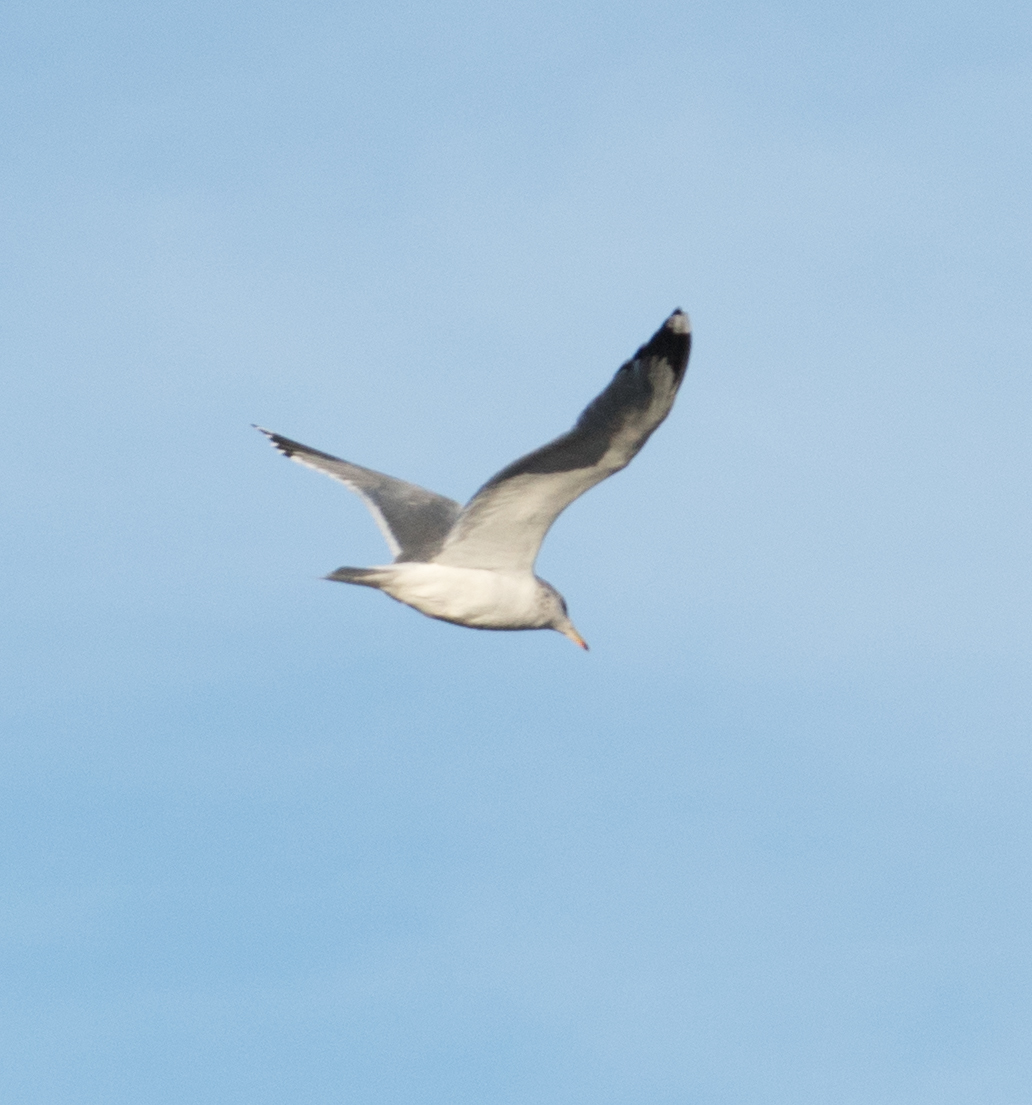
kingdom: Animalia
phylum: Chordata
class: Aves
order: Charadriiformes
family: Laridae
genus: Larus
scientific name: Larus californicus
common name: California gull
